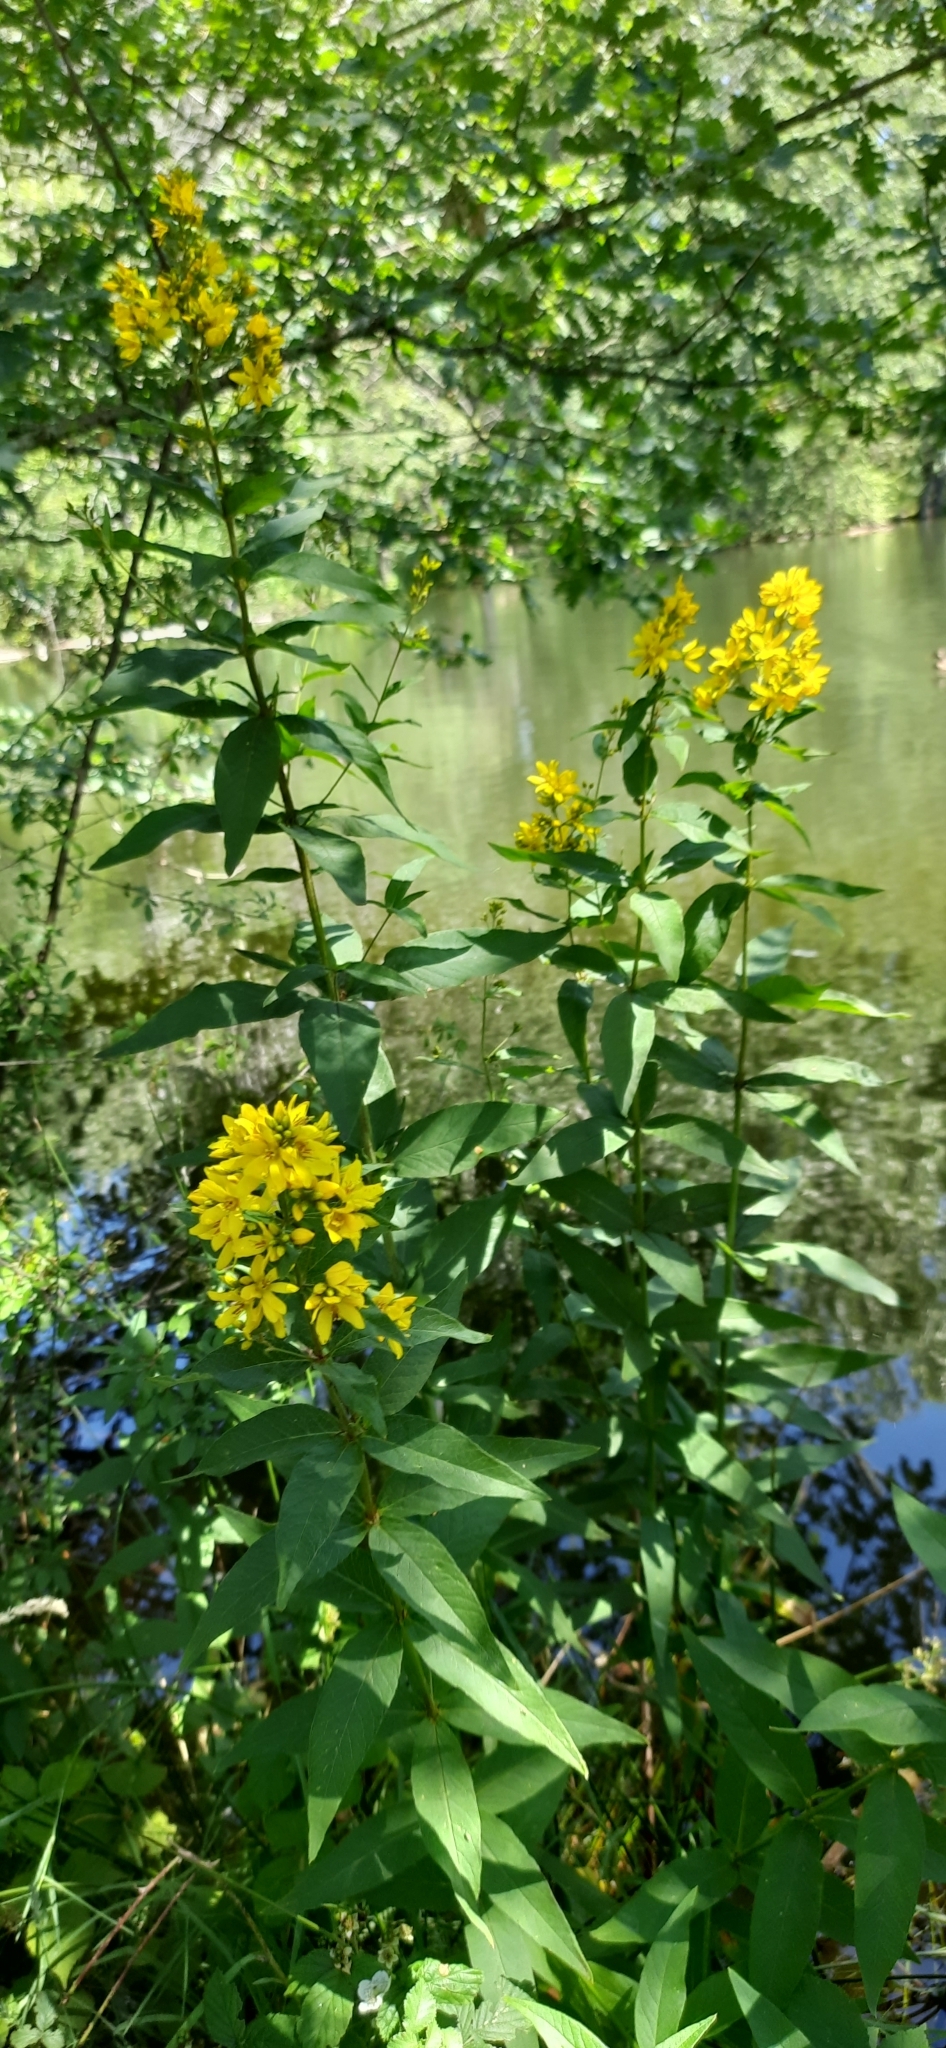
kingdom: Plantae
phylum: Tracheophyta
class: Magnoliopsida
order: Ericales
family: Primulaceae
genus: Lysimachia
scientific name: Lysimachia vulgaris
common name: Yellow loosestrife
